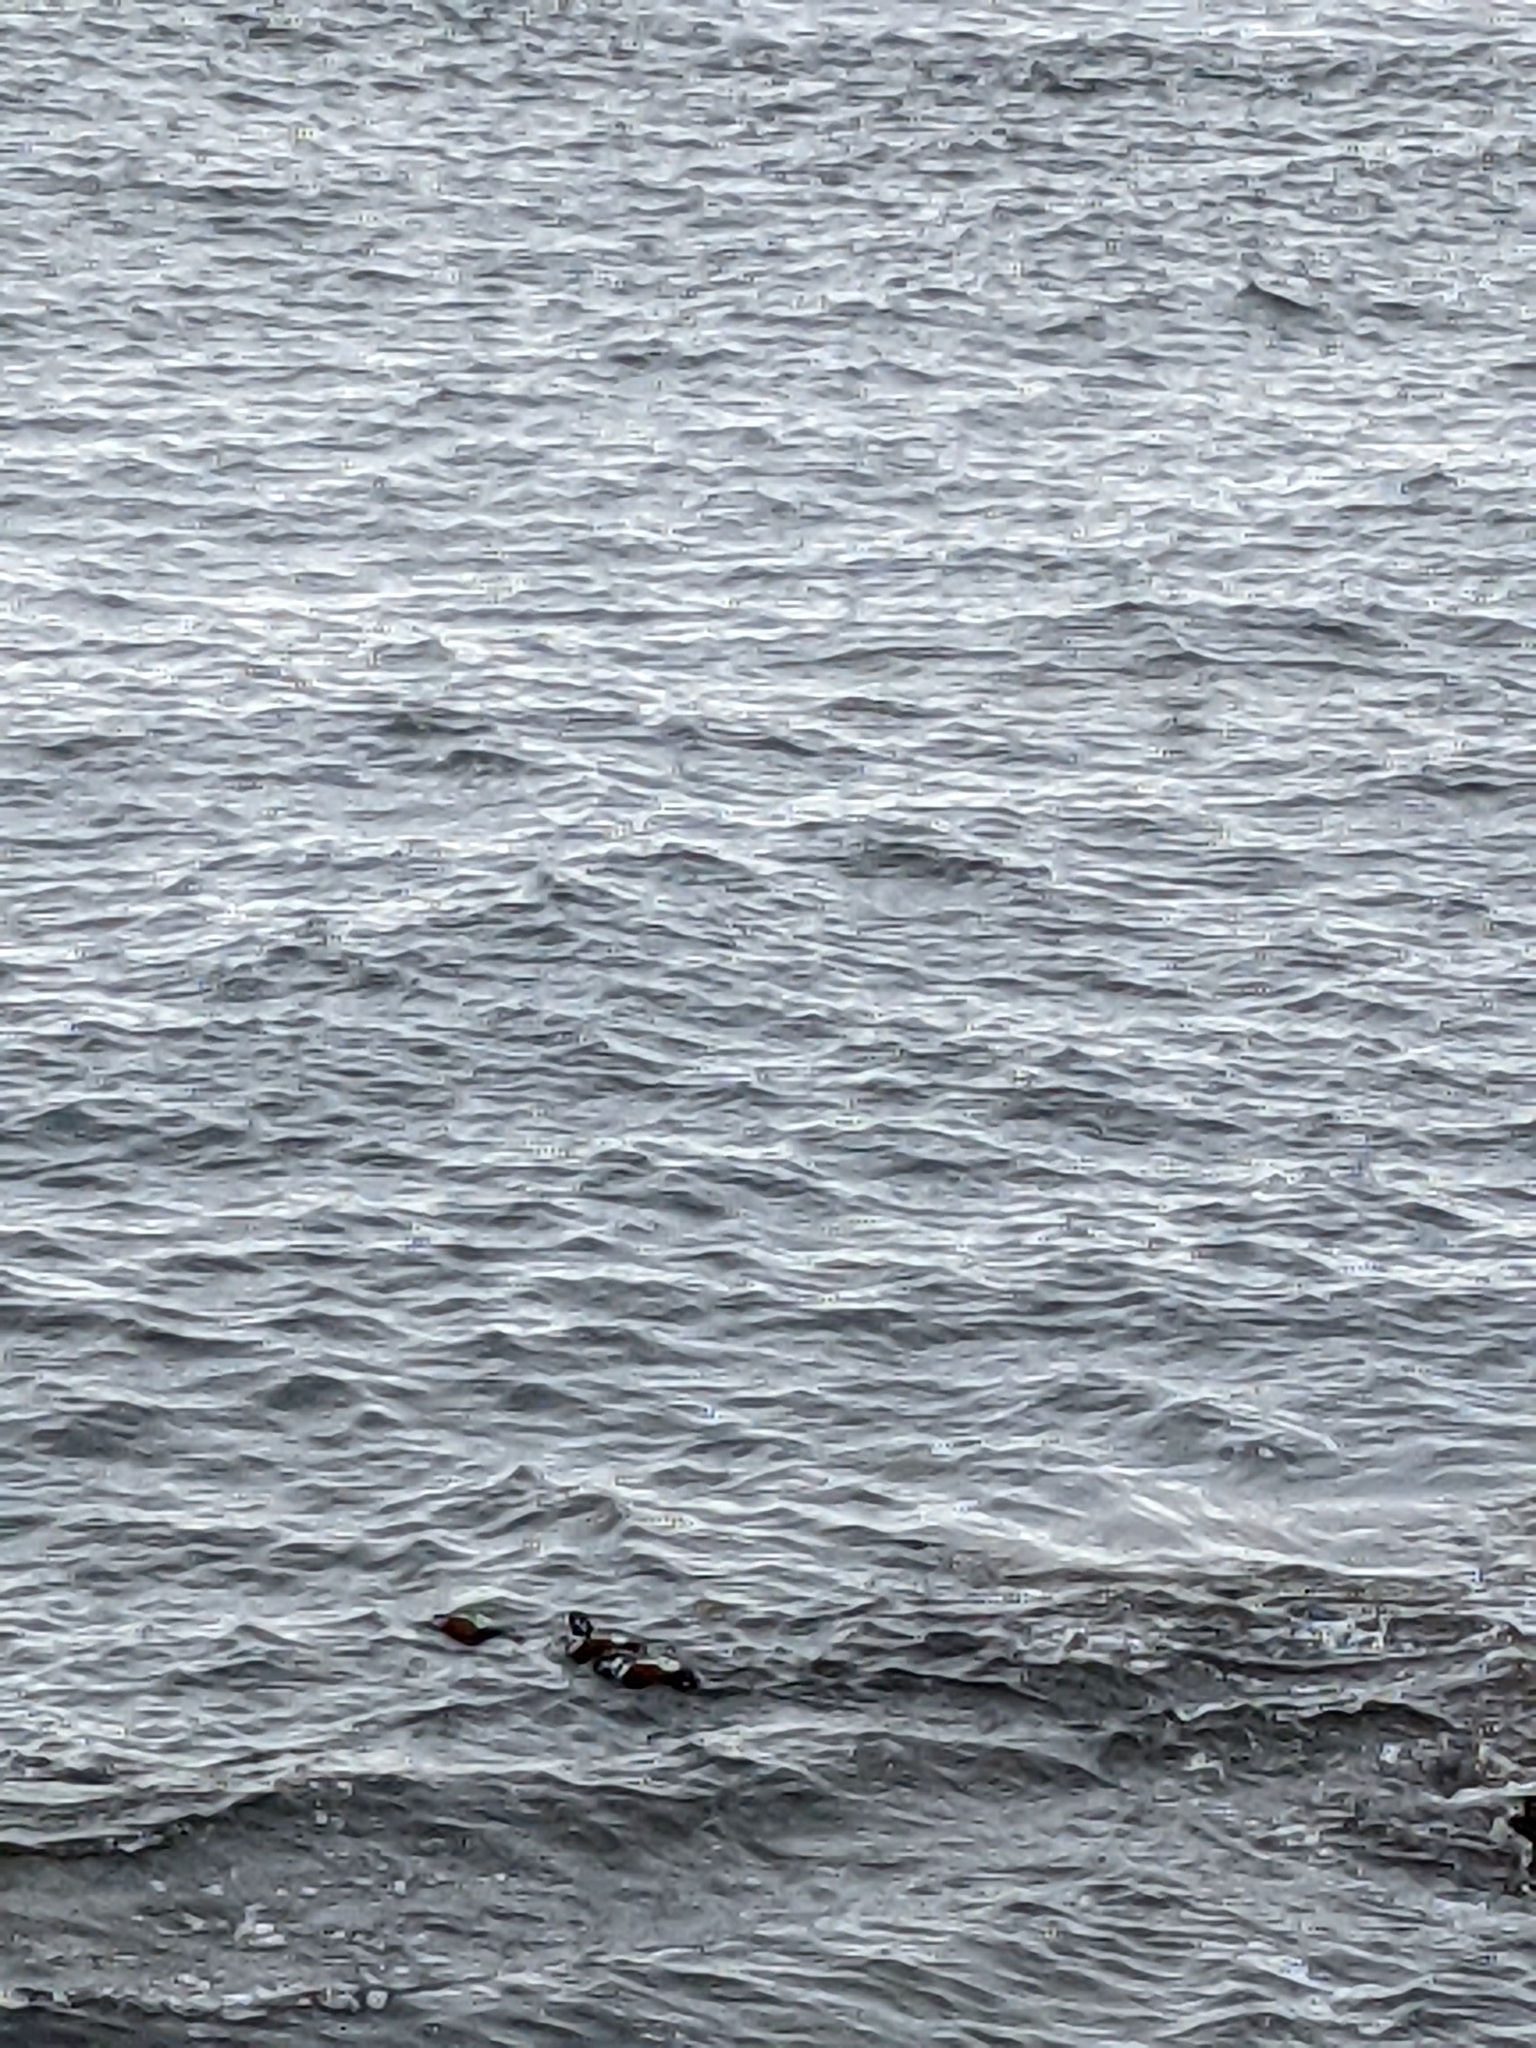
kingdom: Animalia
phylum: Chordata
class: Aves
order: Anseriformes
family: Anatidae
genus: Histrionicus
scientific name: Histrionicus histrionicus
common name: Harlequin duck
